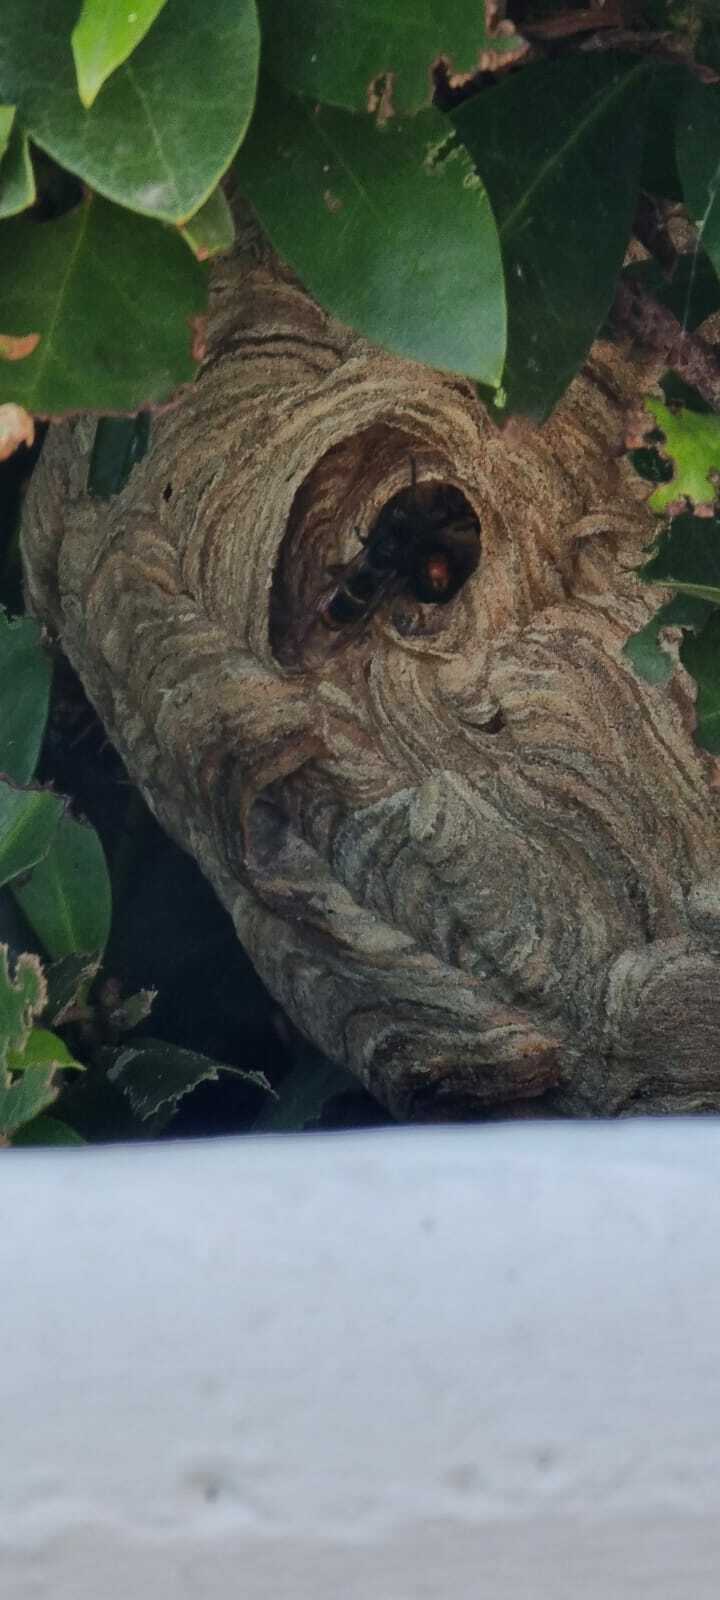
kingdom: Animalia
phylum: Arthropoda
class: Insecta
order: Hymenoptera
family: Vespidae
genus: Vespa
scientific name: Vespa velutina
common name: Asian hornet
